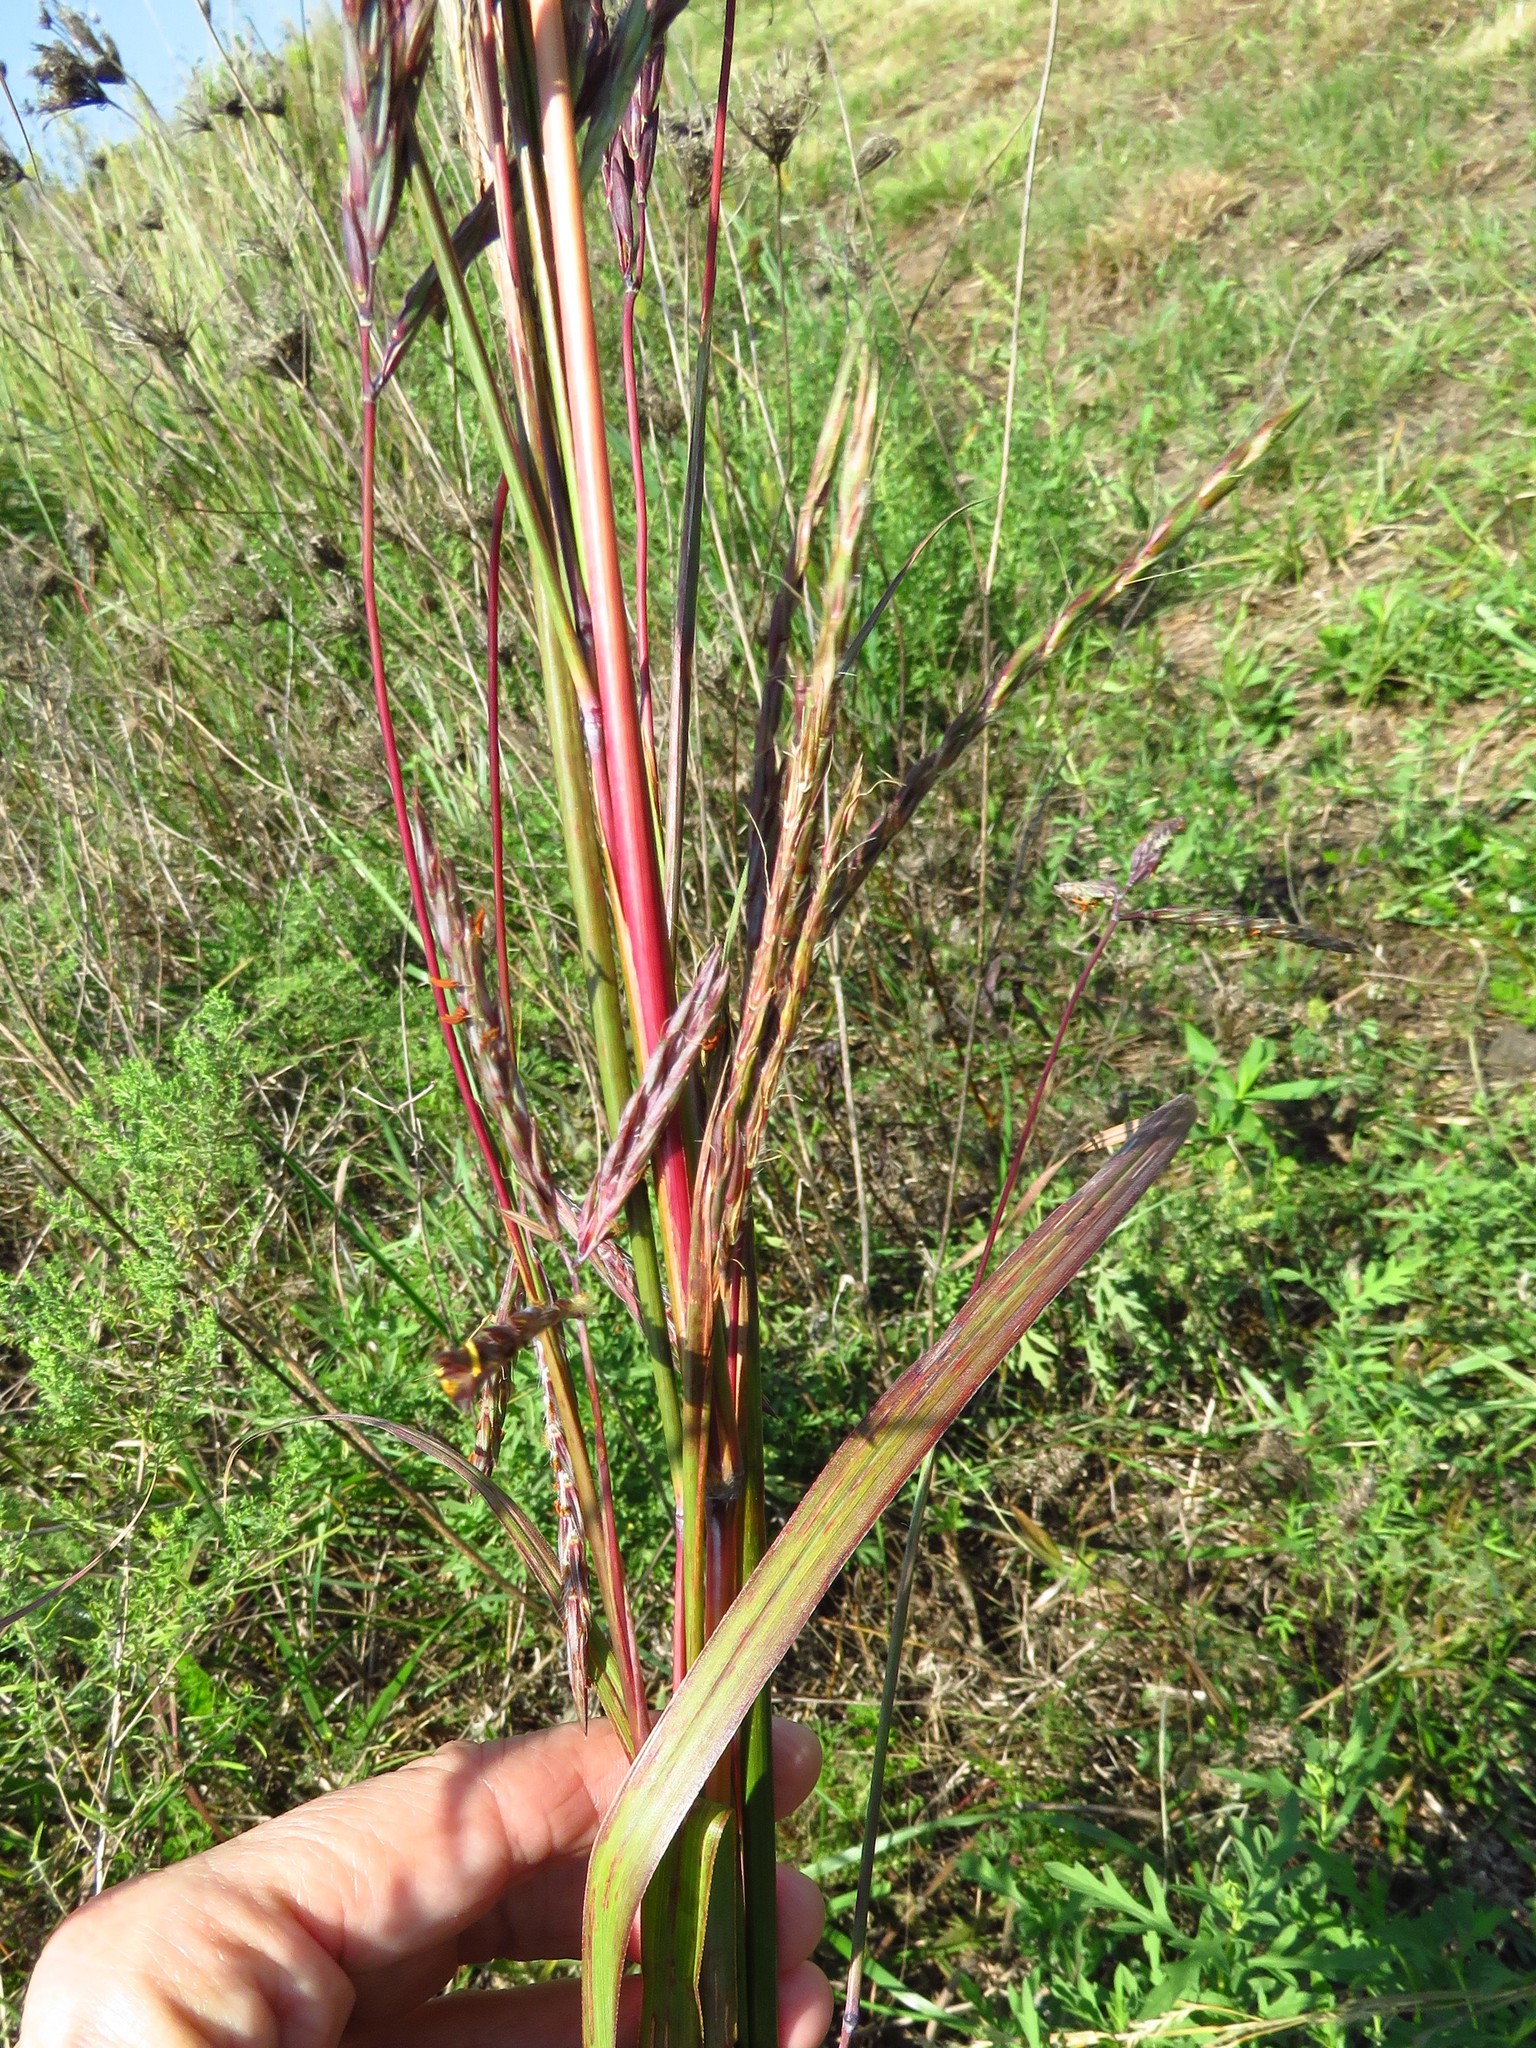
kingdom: Plantae
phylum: Tracheophyta
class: Liliopsida
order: Poales
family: Poaceae
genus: Andropogon
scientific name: Andropogon gerardi
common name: Big bluestem
